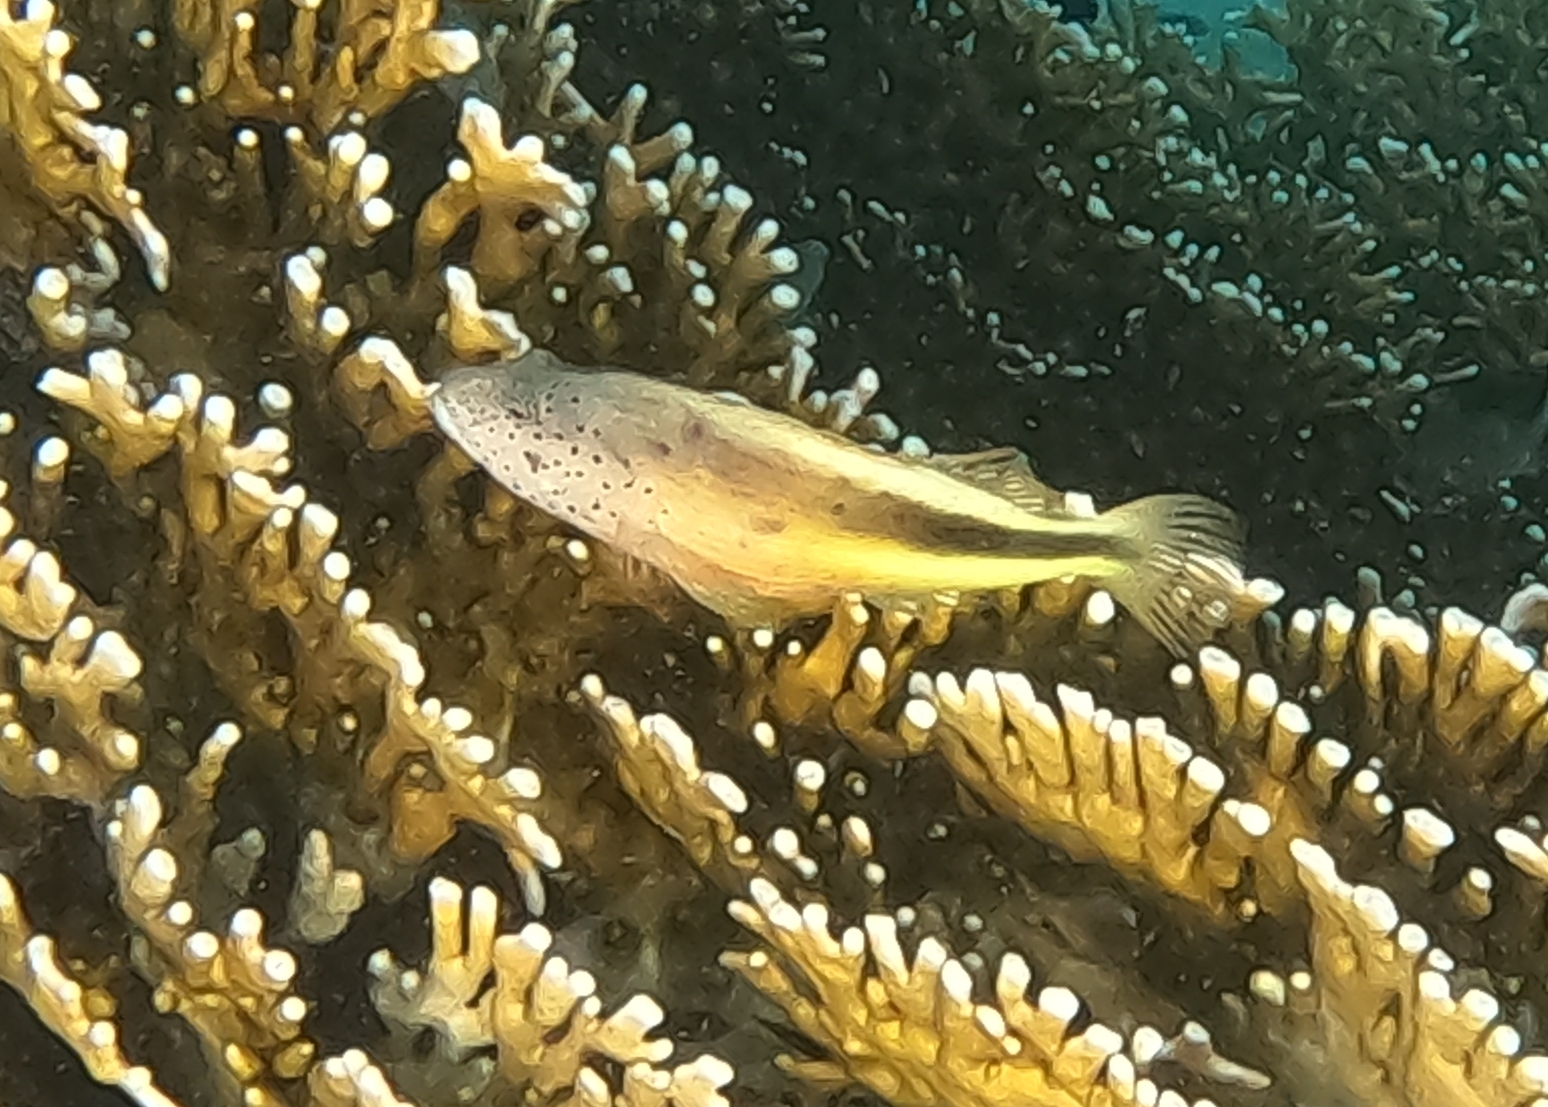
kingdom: Animalia
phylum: Chordata
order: Perciformes
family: Cirrhitidae
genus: Paracirrhites
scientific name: Paracirrhites forsteri
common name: Freckled hawkfish
